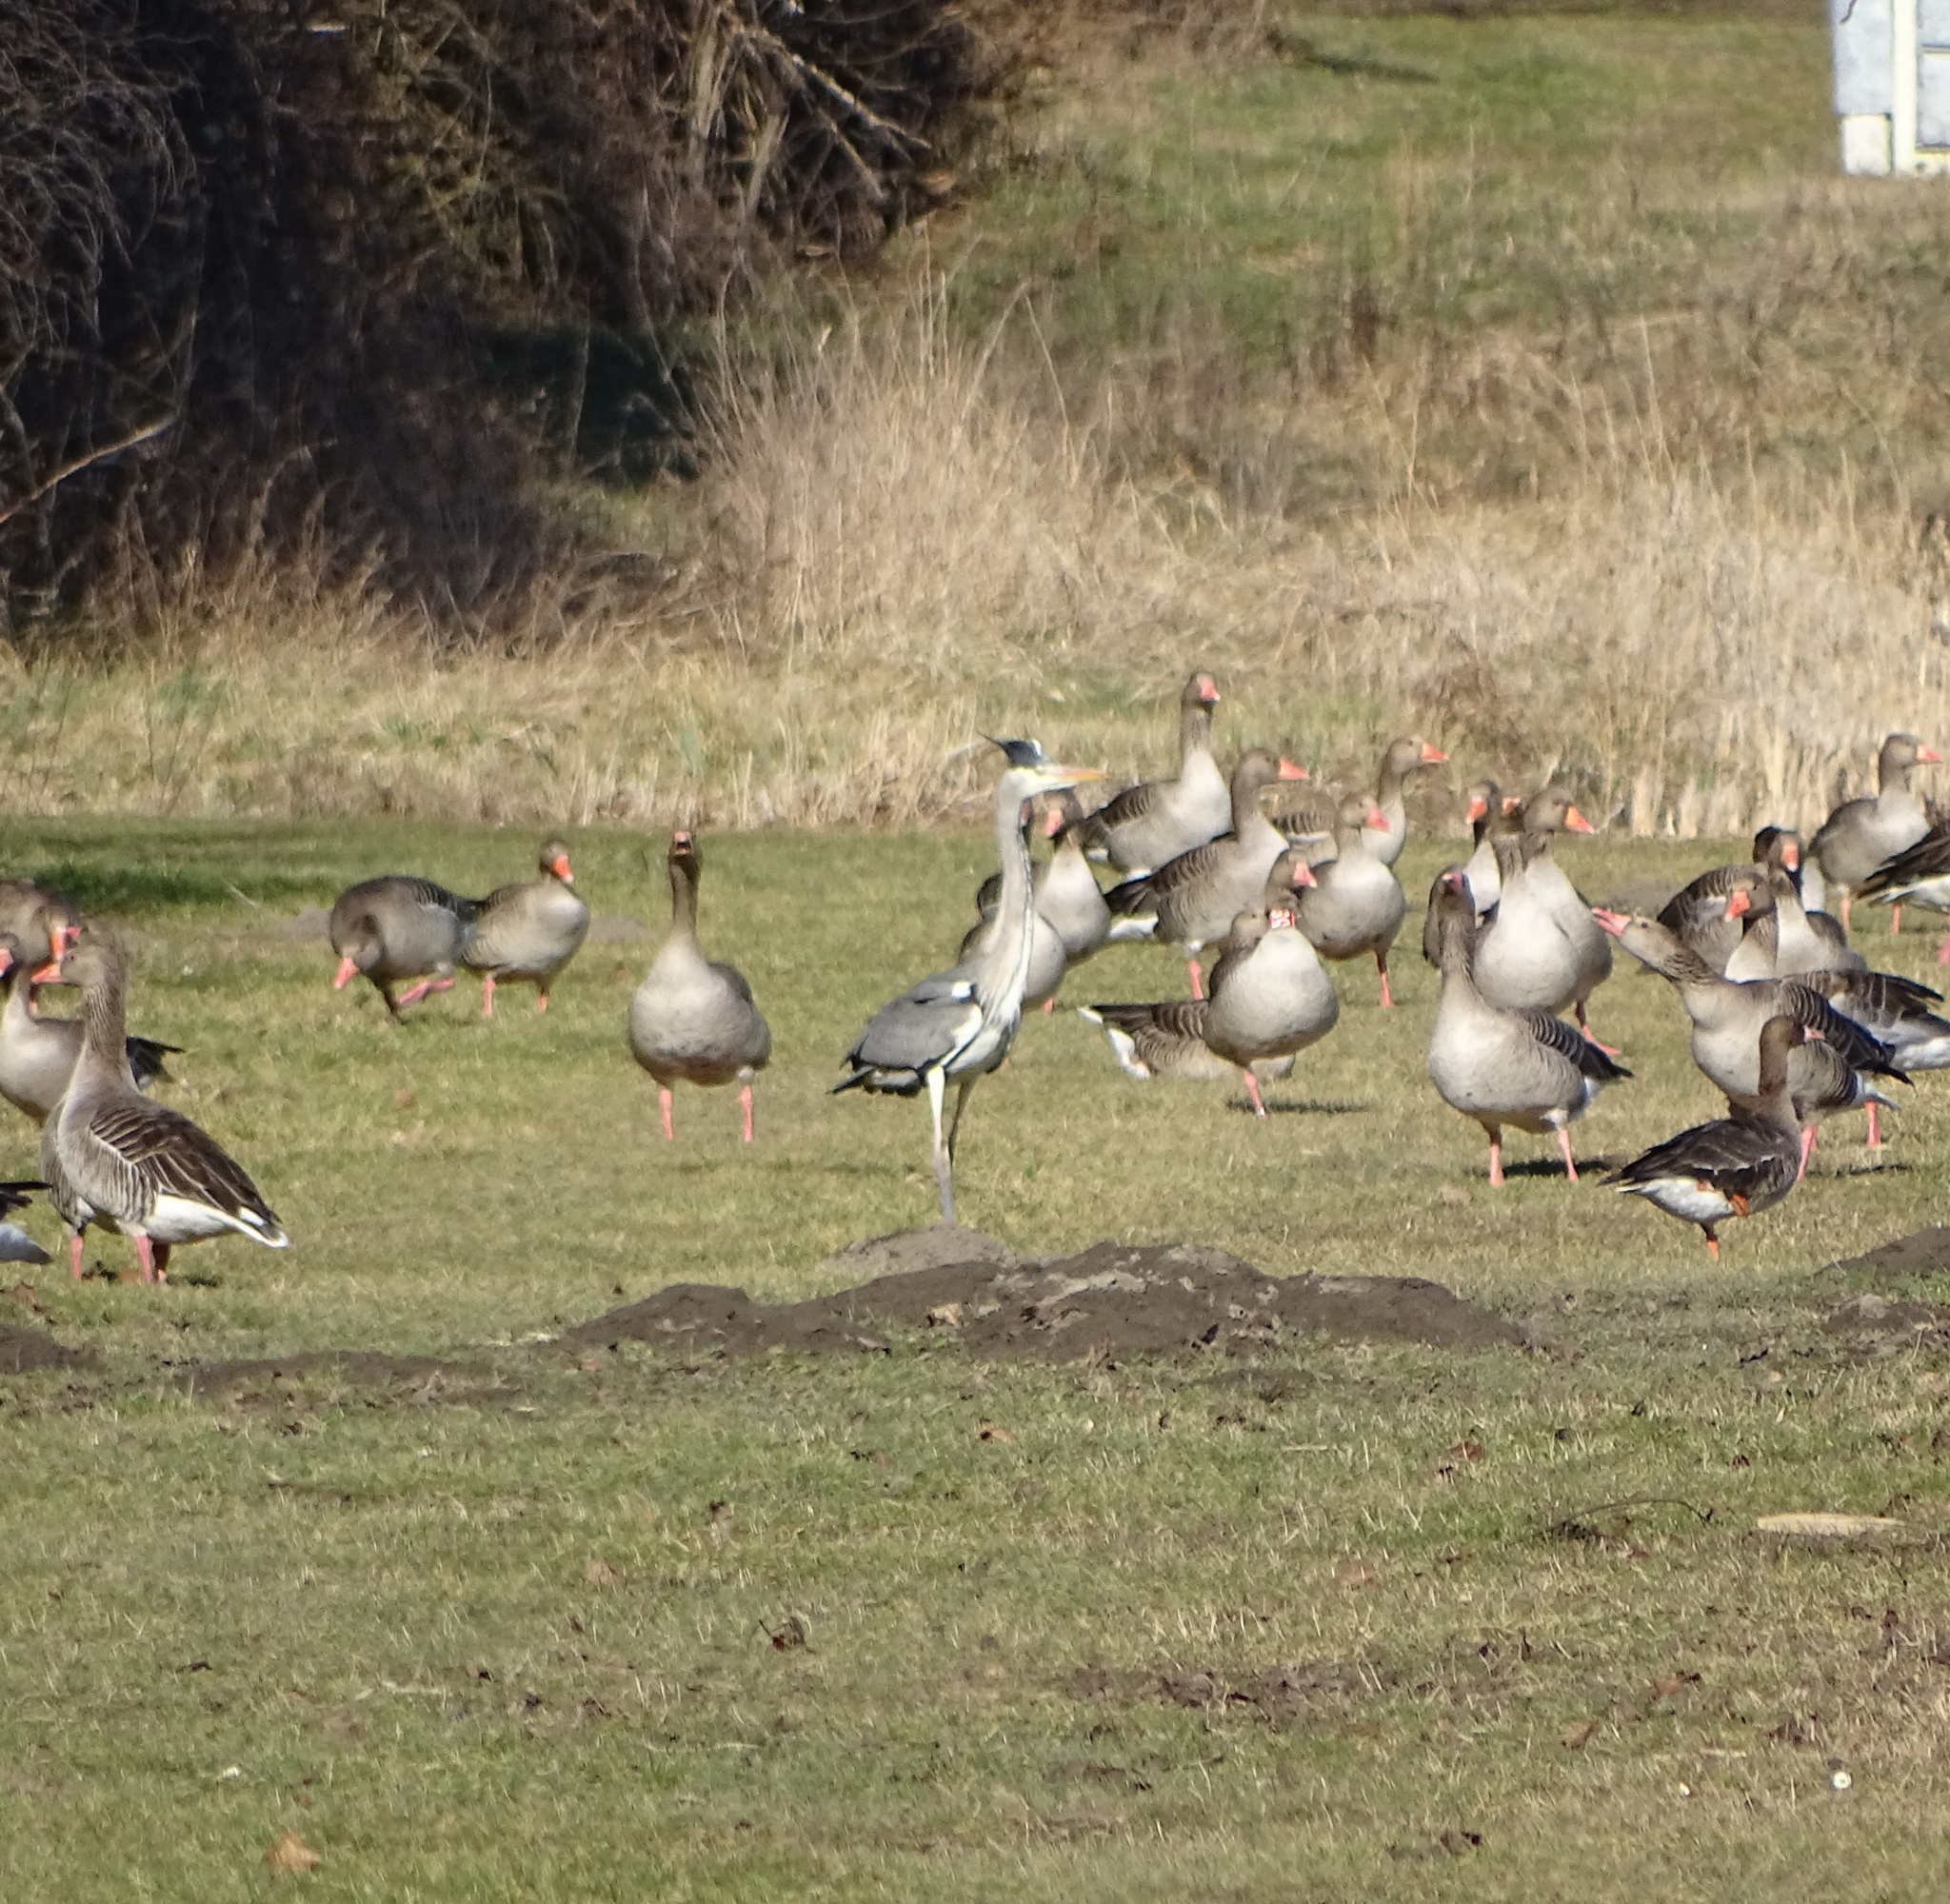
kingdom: Animalia
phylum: Chordata
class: Aves
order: Pelecaniformes
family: Ardeidae
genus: Ardea
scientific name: Ardea cinerea
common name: Grey heron
